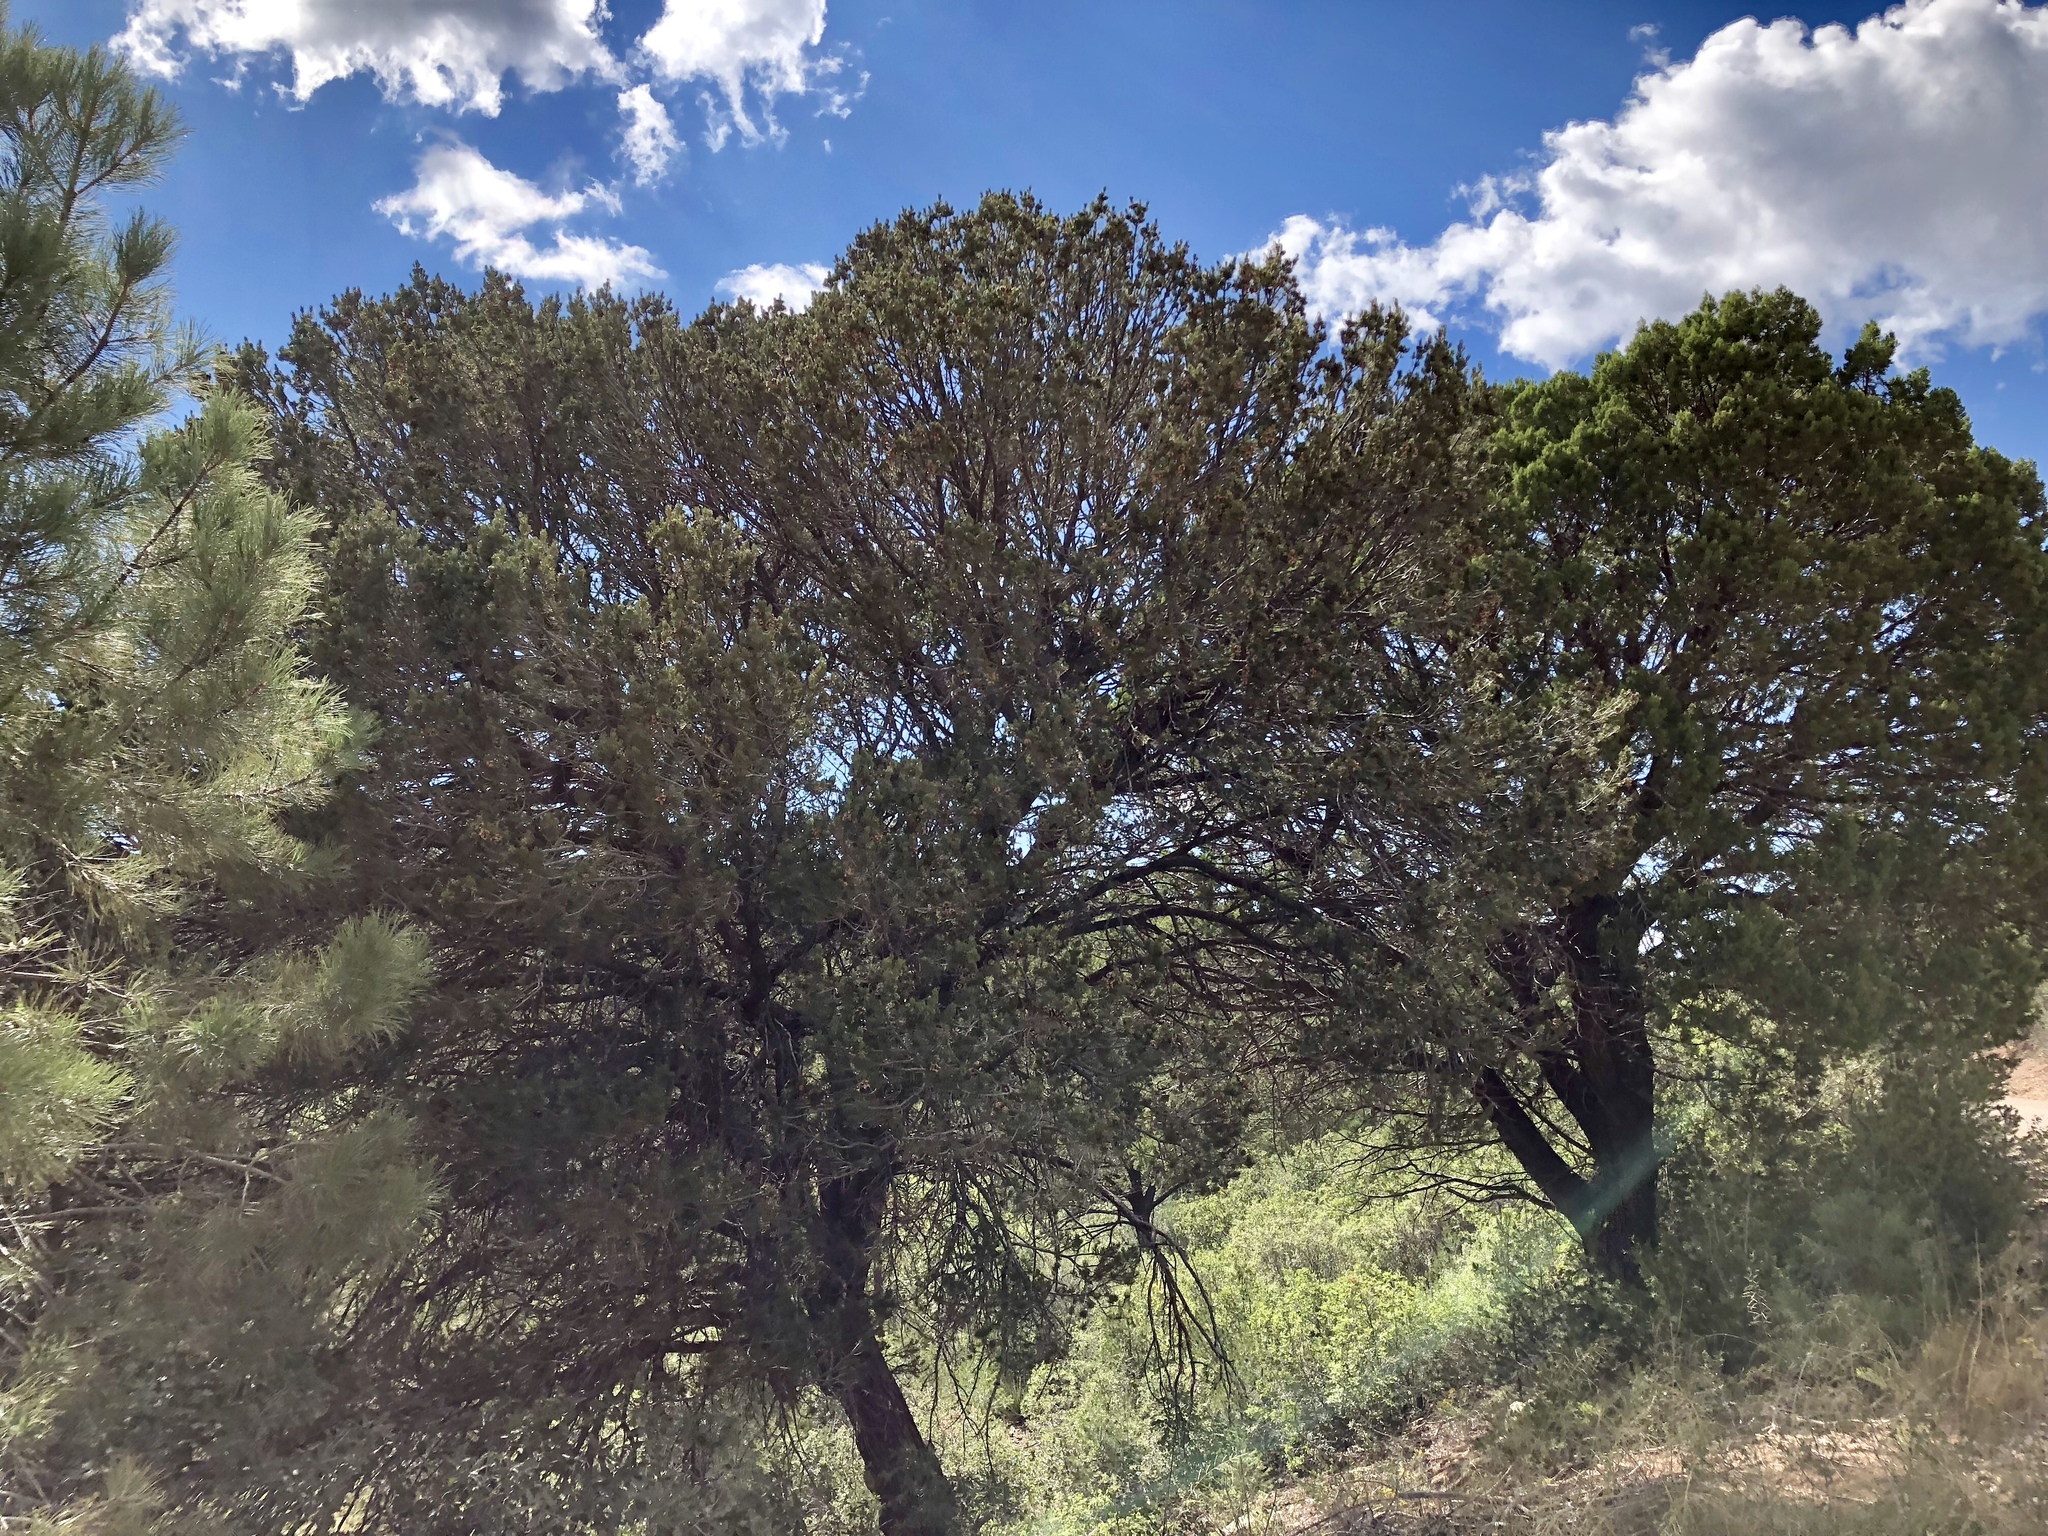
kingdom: Plantae
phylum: Tracheophyta
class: Pinopsida
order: Pinales
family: Pinaceae
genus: Pinus
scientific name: Pinus edulis
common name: Colorado pinyon
